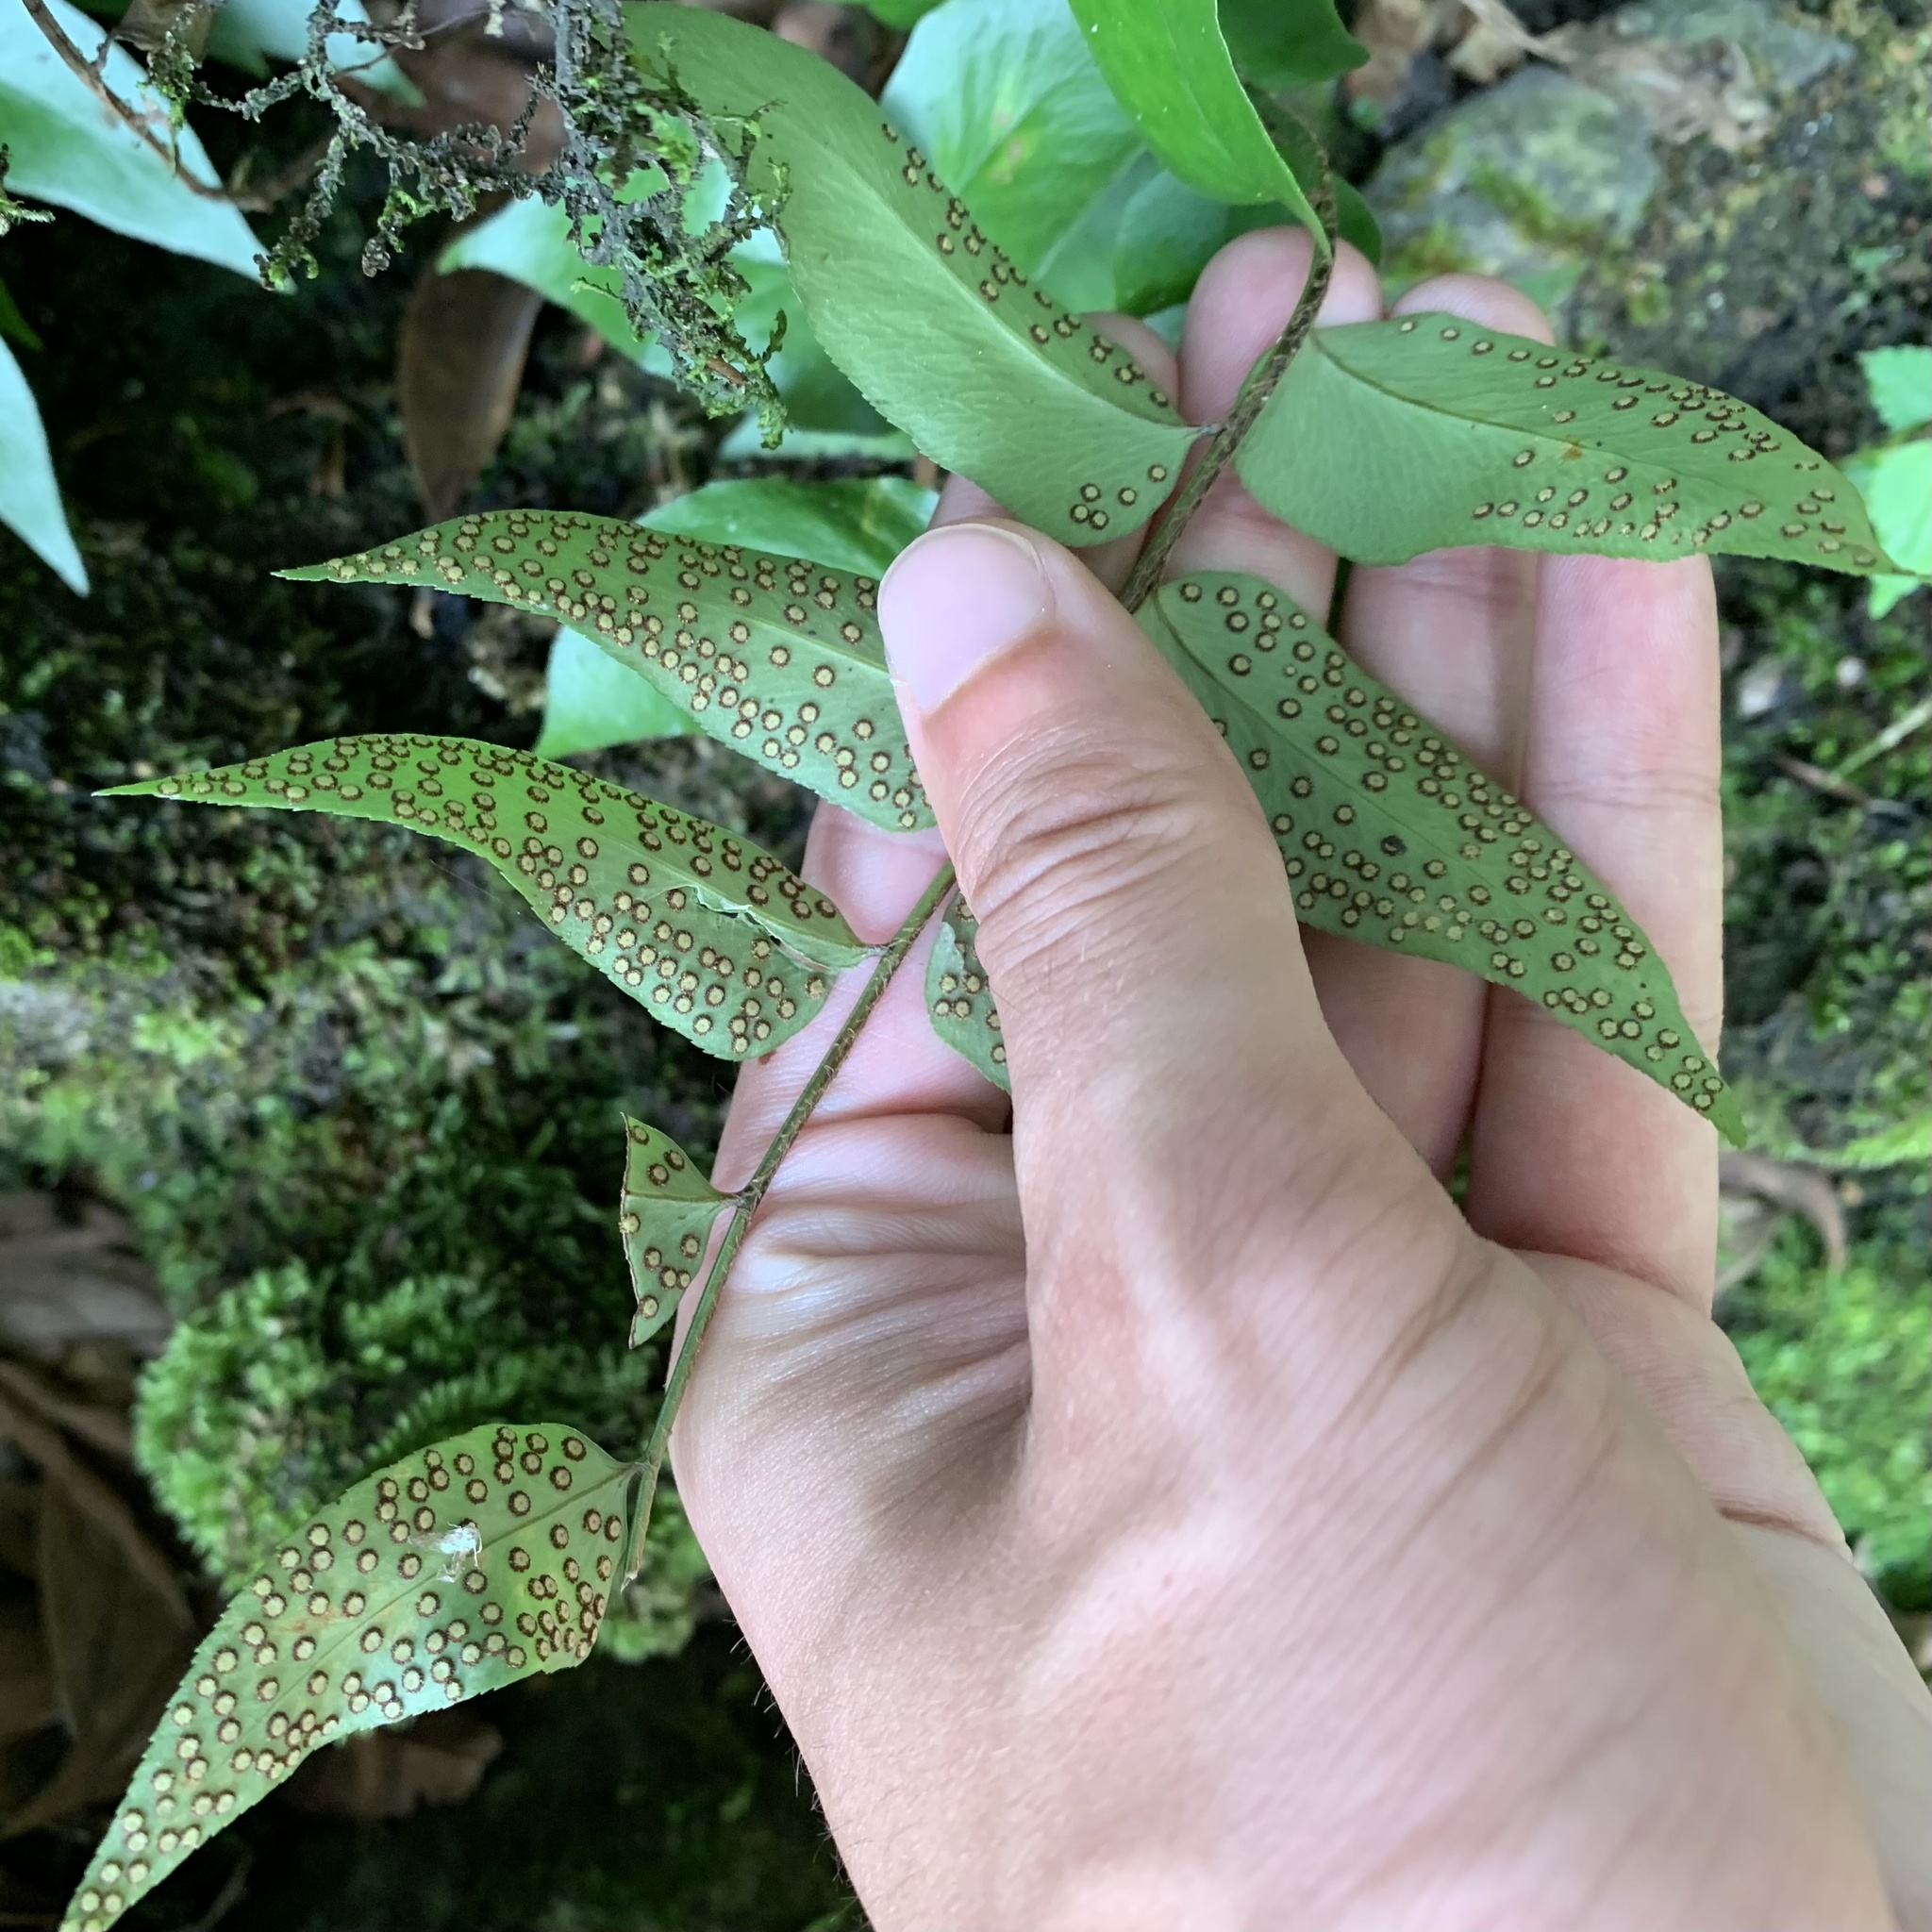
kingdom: Plantae
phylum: Tracheophyta
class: Polypodiopsida
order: Polypodiales
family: Dryopteridaceae
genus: Cyrtomium
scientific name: Cyrtomium fortunei
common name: Asian netvein hollyfern
